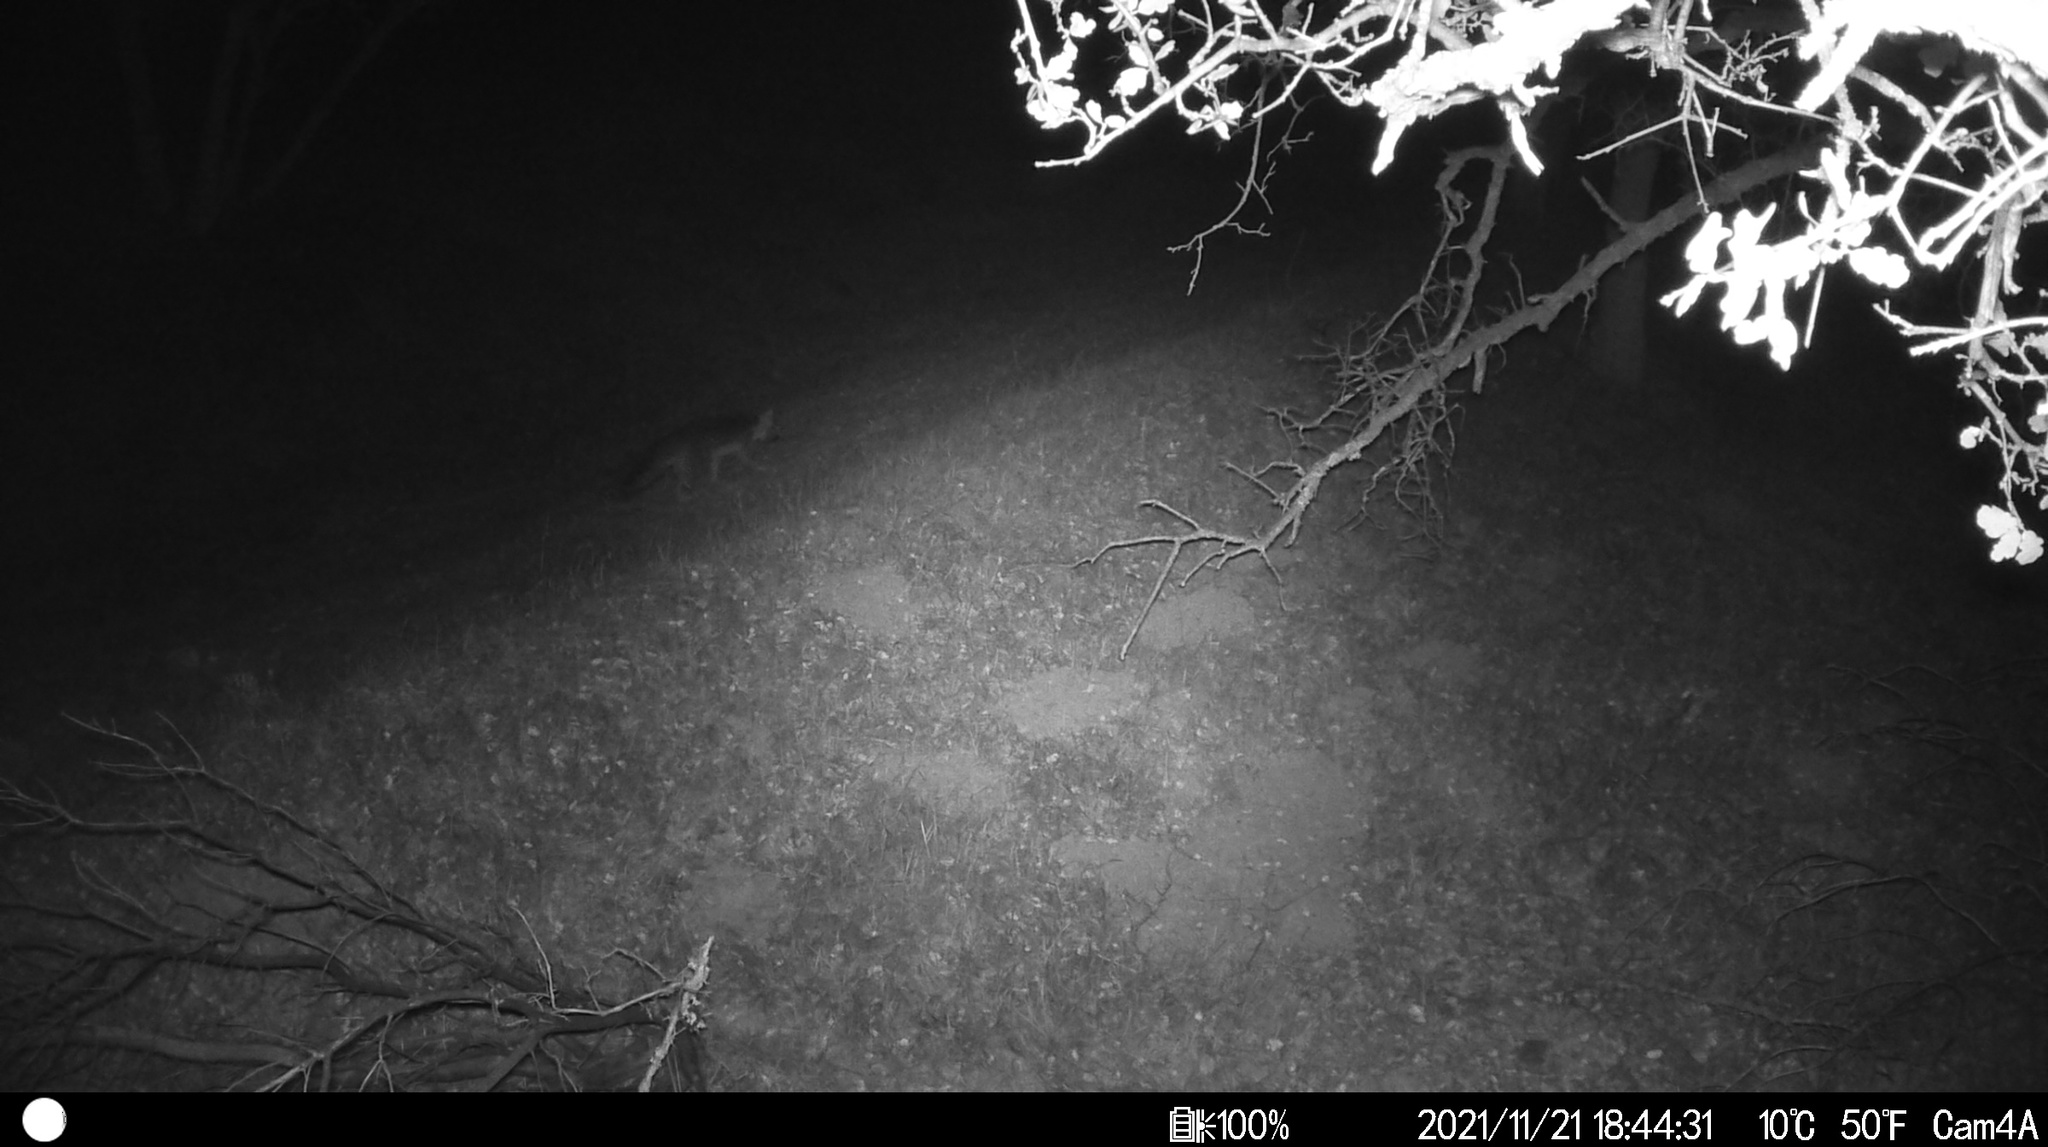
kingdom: Animalia
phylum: Chordata
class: Mammalia
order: Carnivora
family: Canidae
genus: Urocyon
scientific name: Urocyon cinereoargenteus
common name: Gray fox
